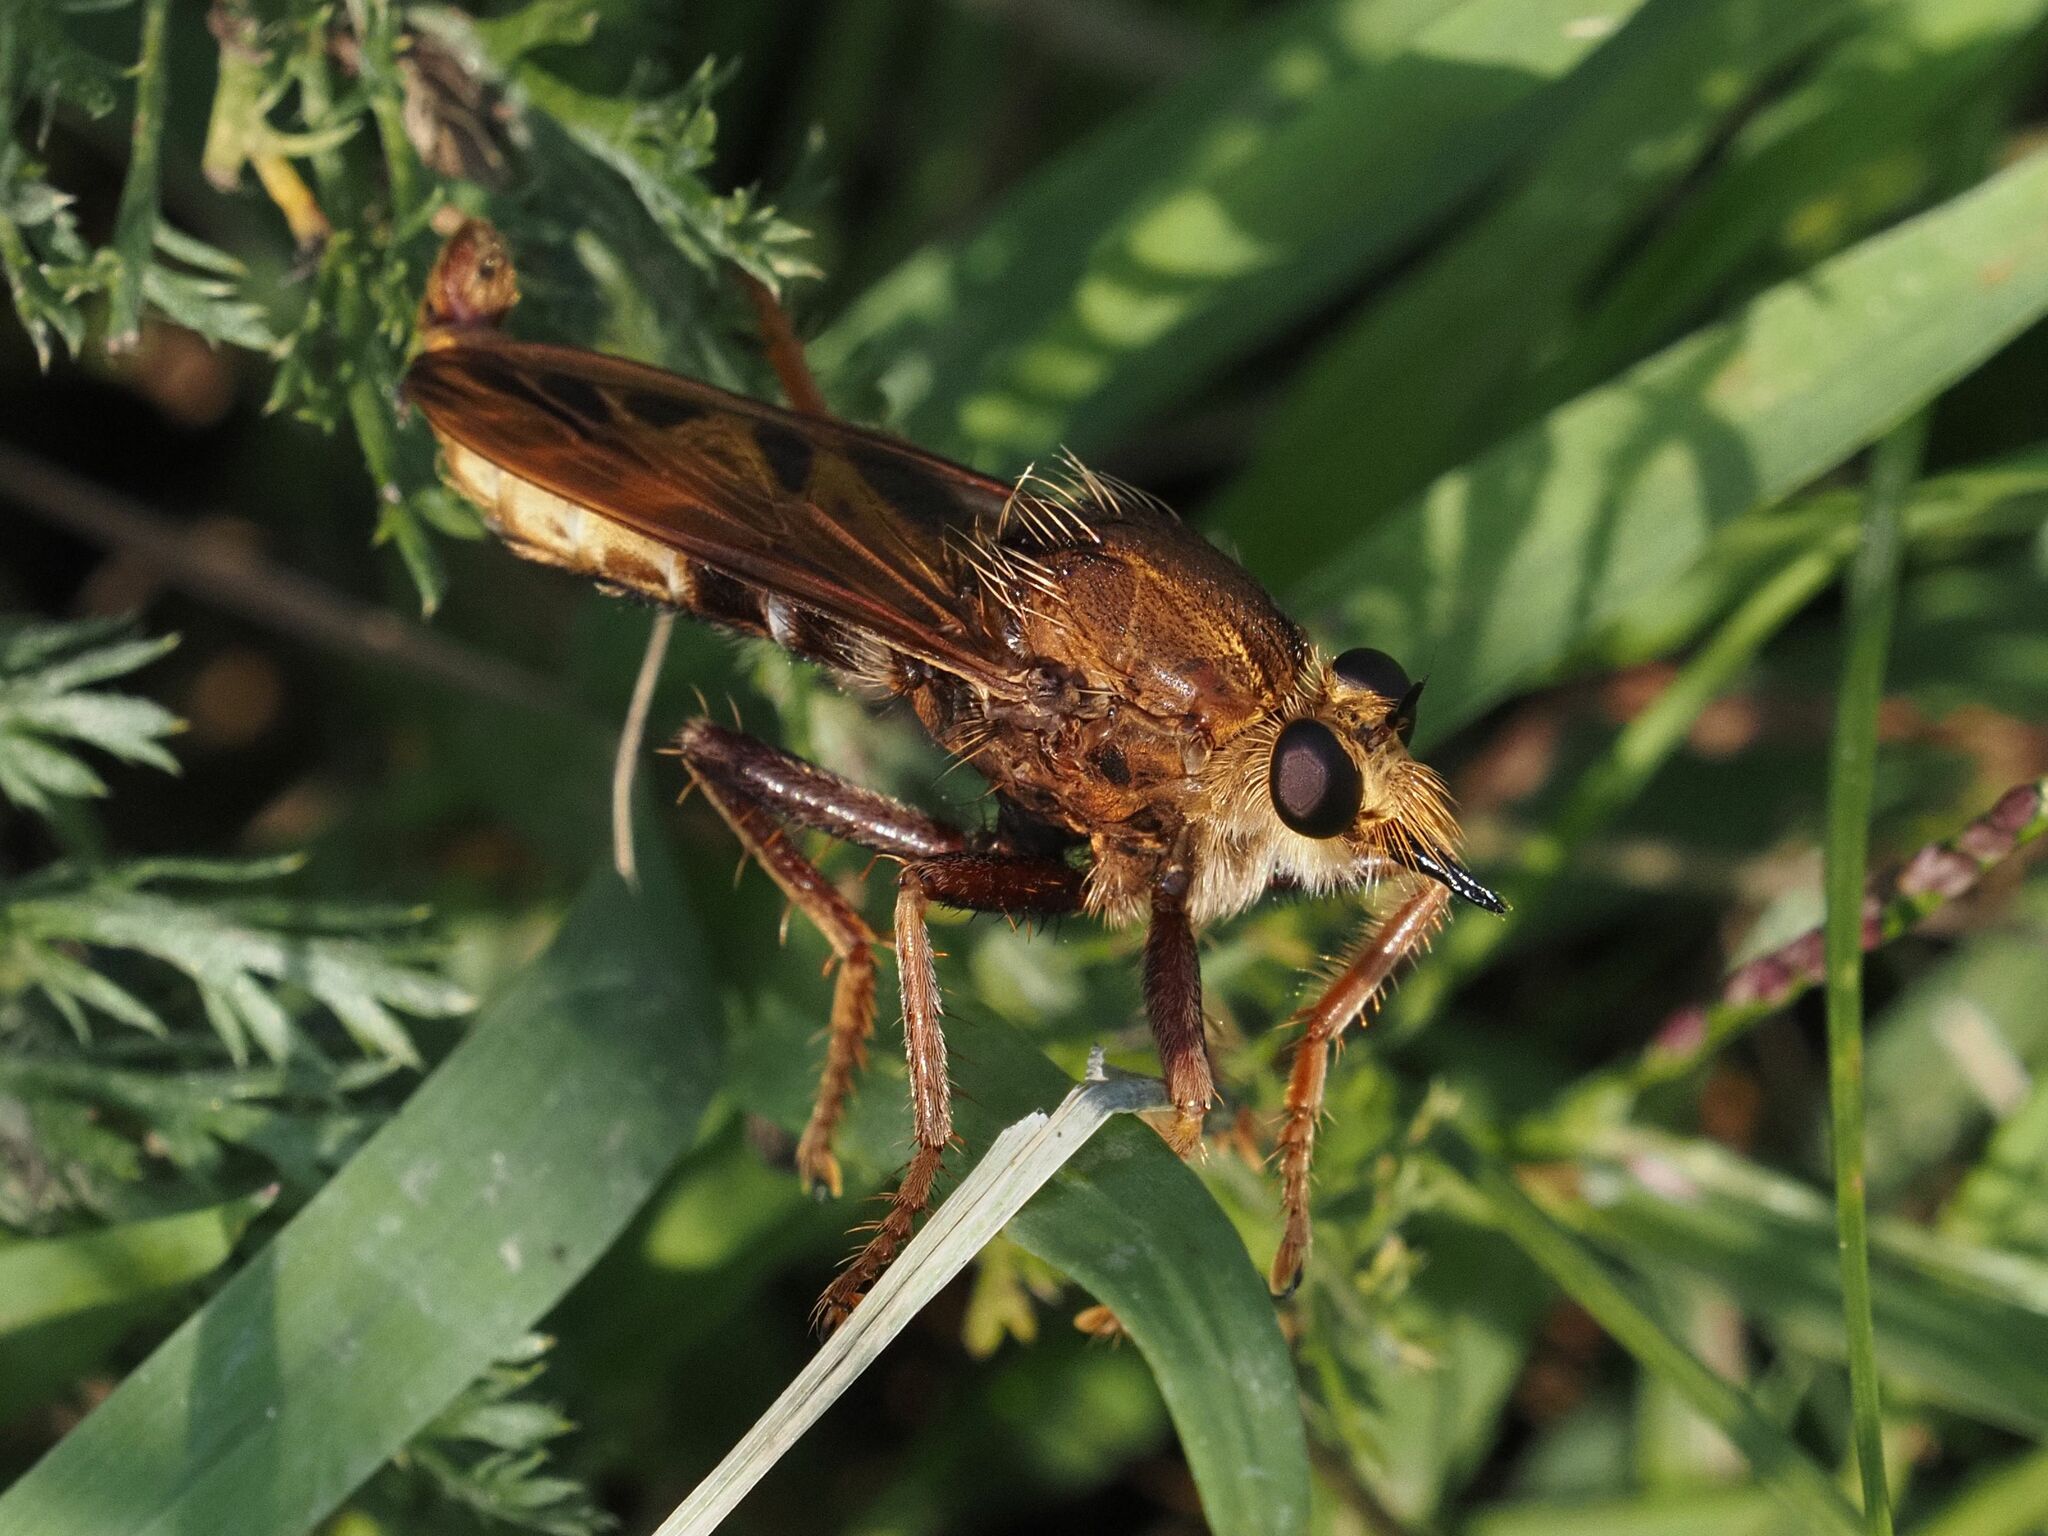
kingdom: Animalia
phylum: Arthropoda
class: Insecta
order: Diptera
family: Asilidae
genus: Asilus
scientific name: Asilus crabroniformis
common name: Hornet robberfly
